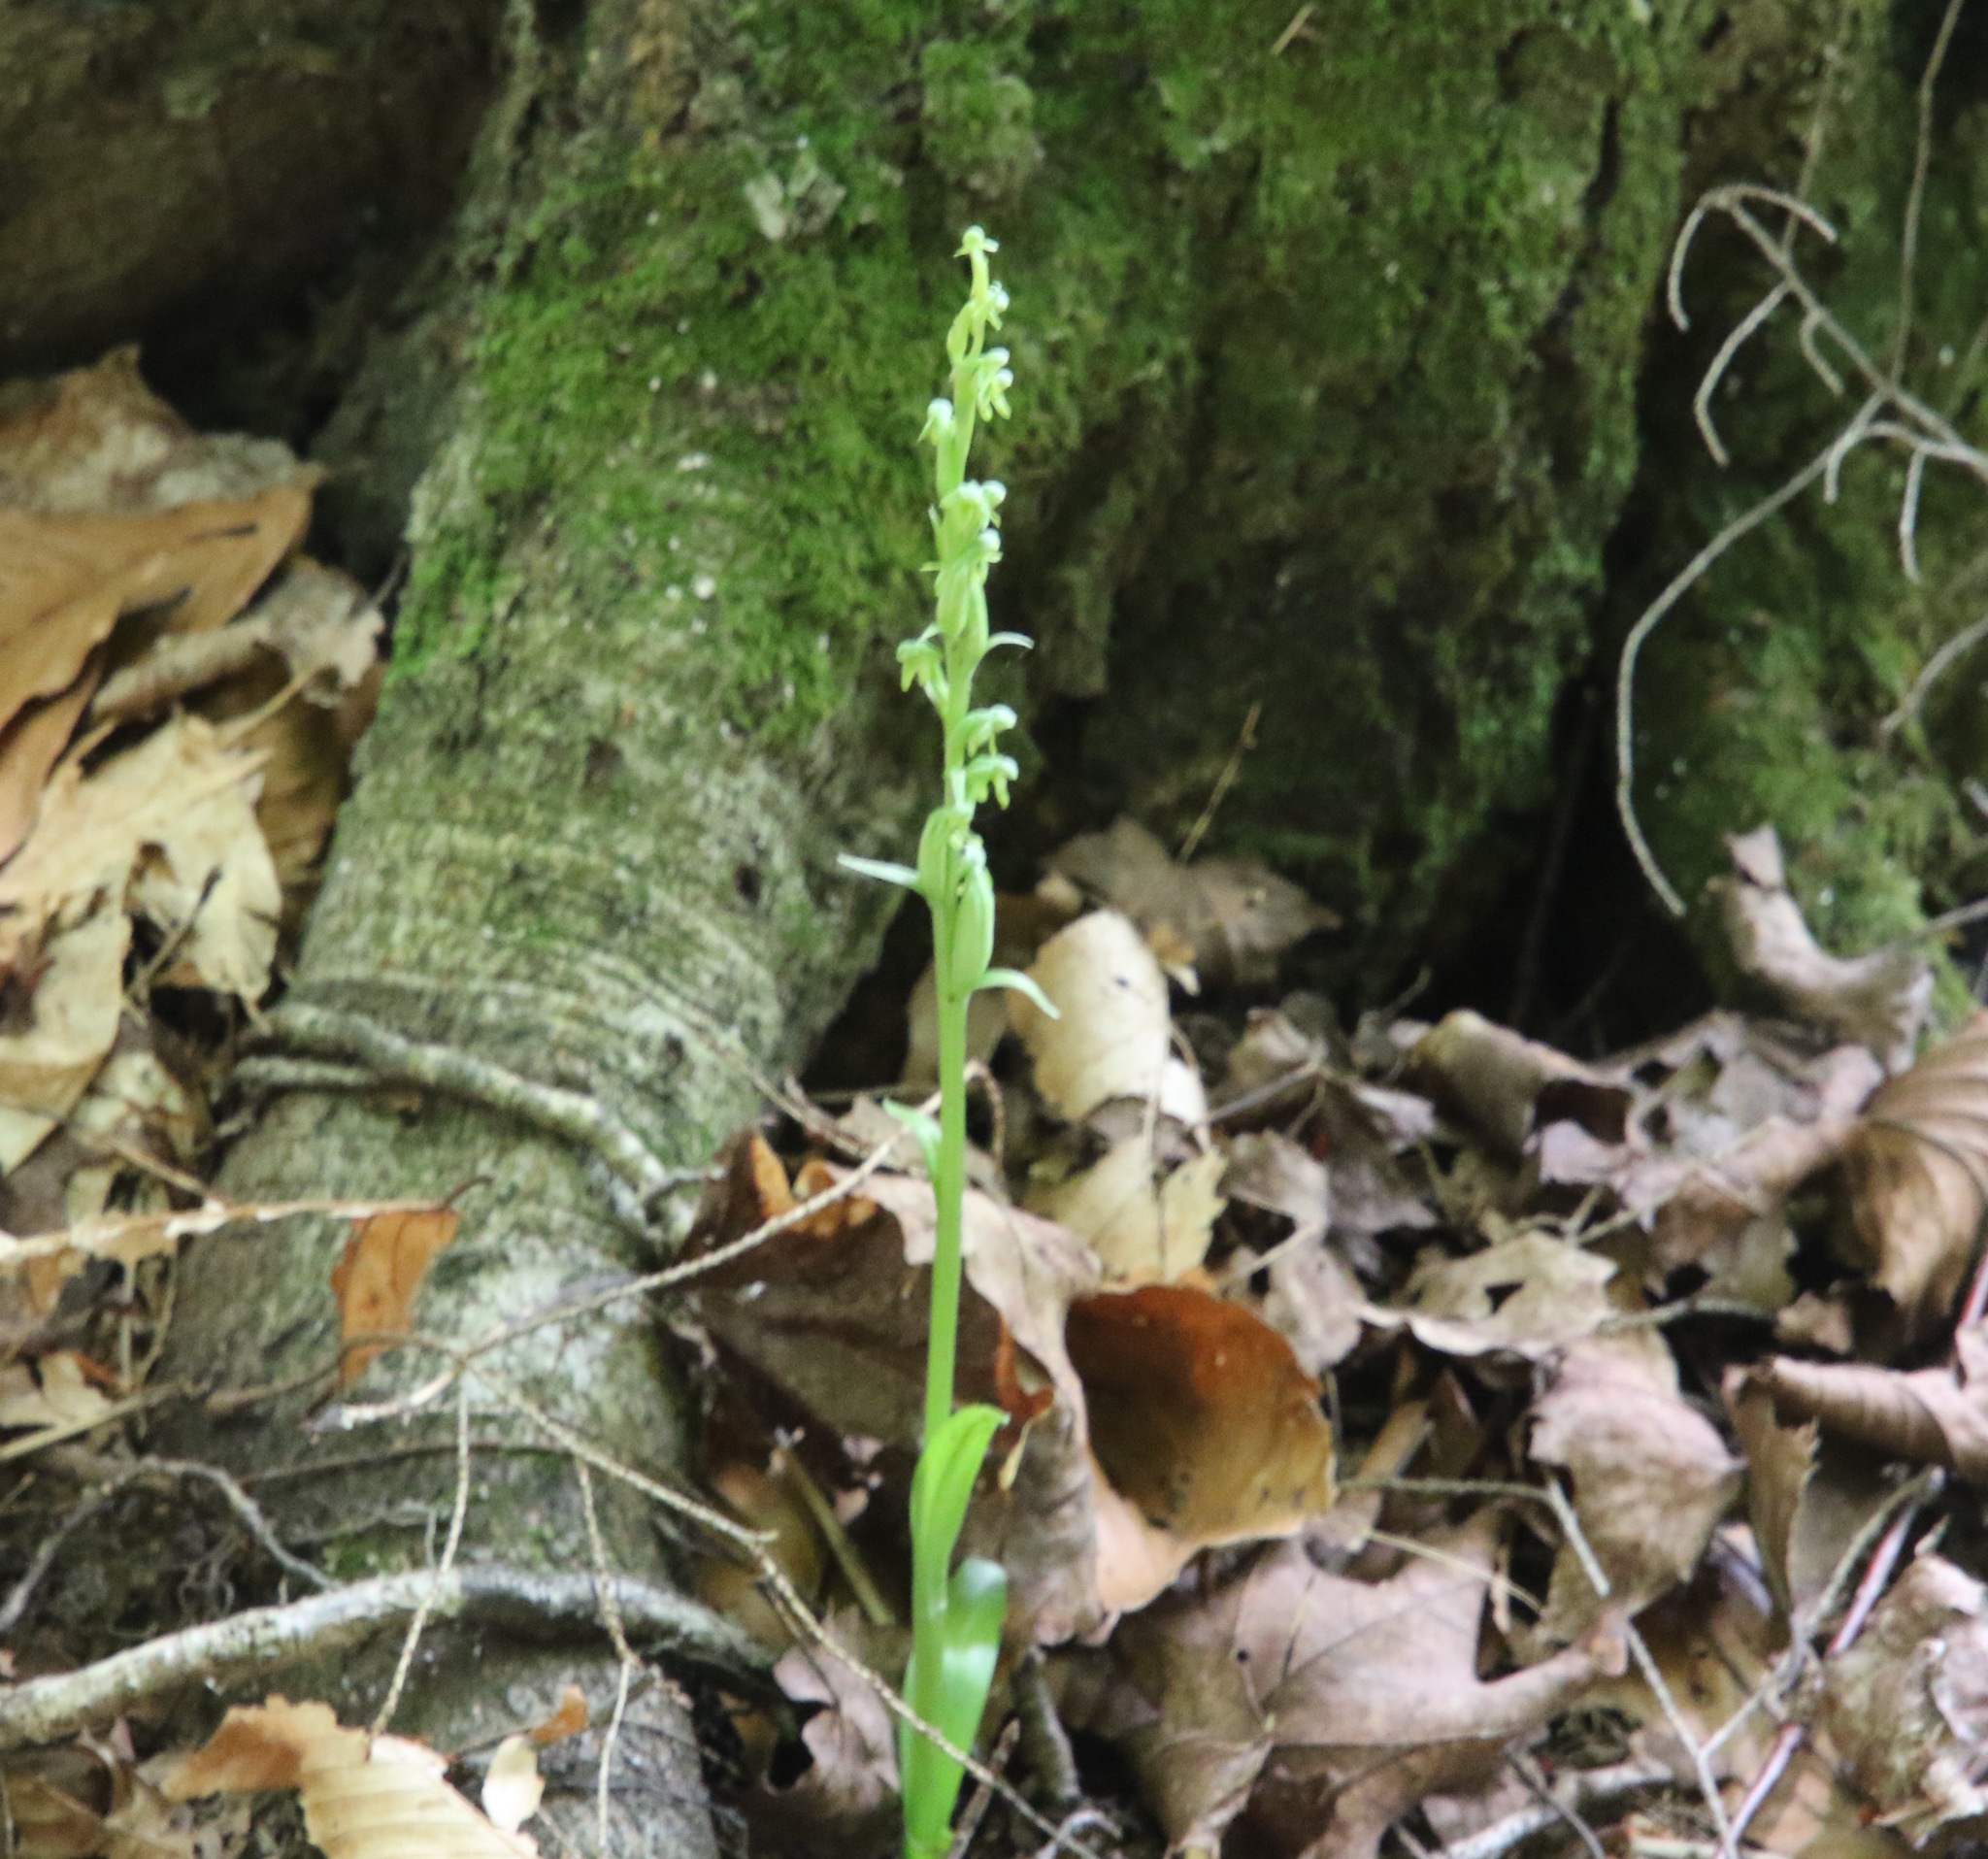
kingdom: Plantae
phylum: Tracheophyta
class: Liliopsida
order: Asparagales
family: Orchidaceae
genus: Platanthera
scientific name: Platanthera aquilonis
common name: Northern green orchid
